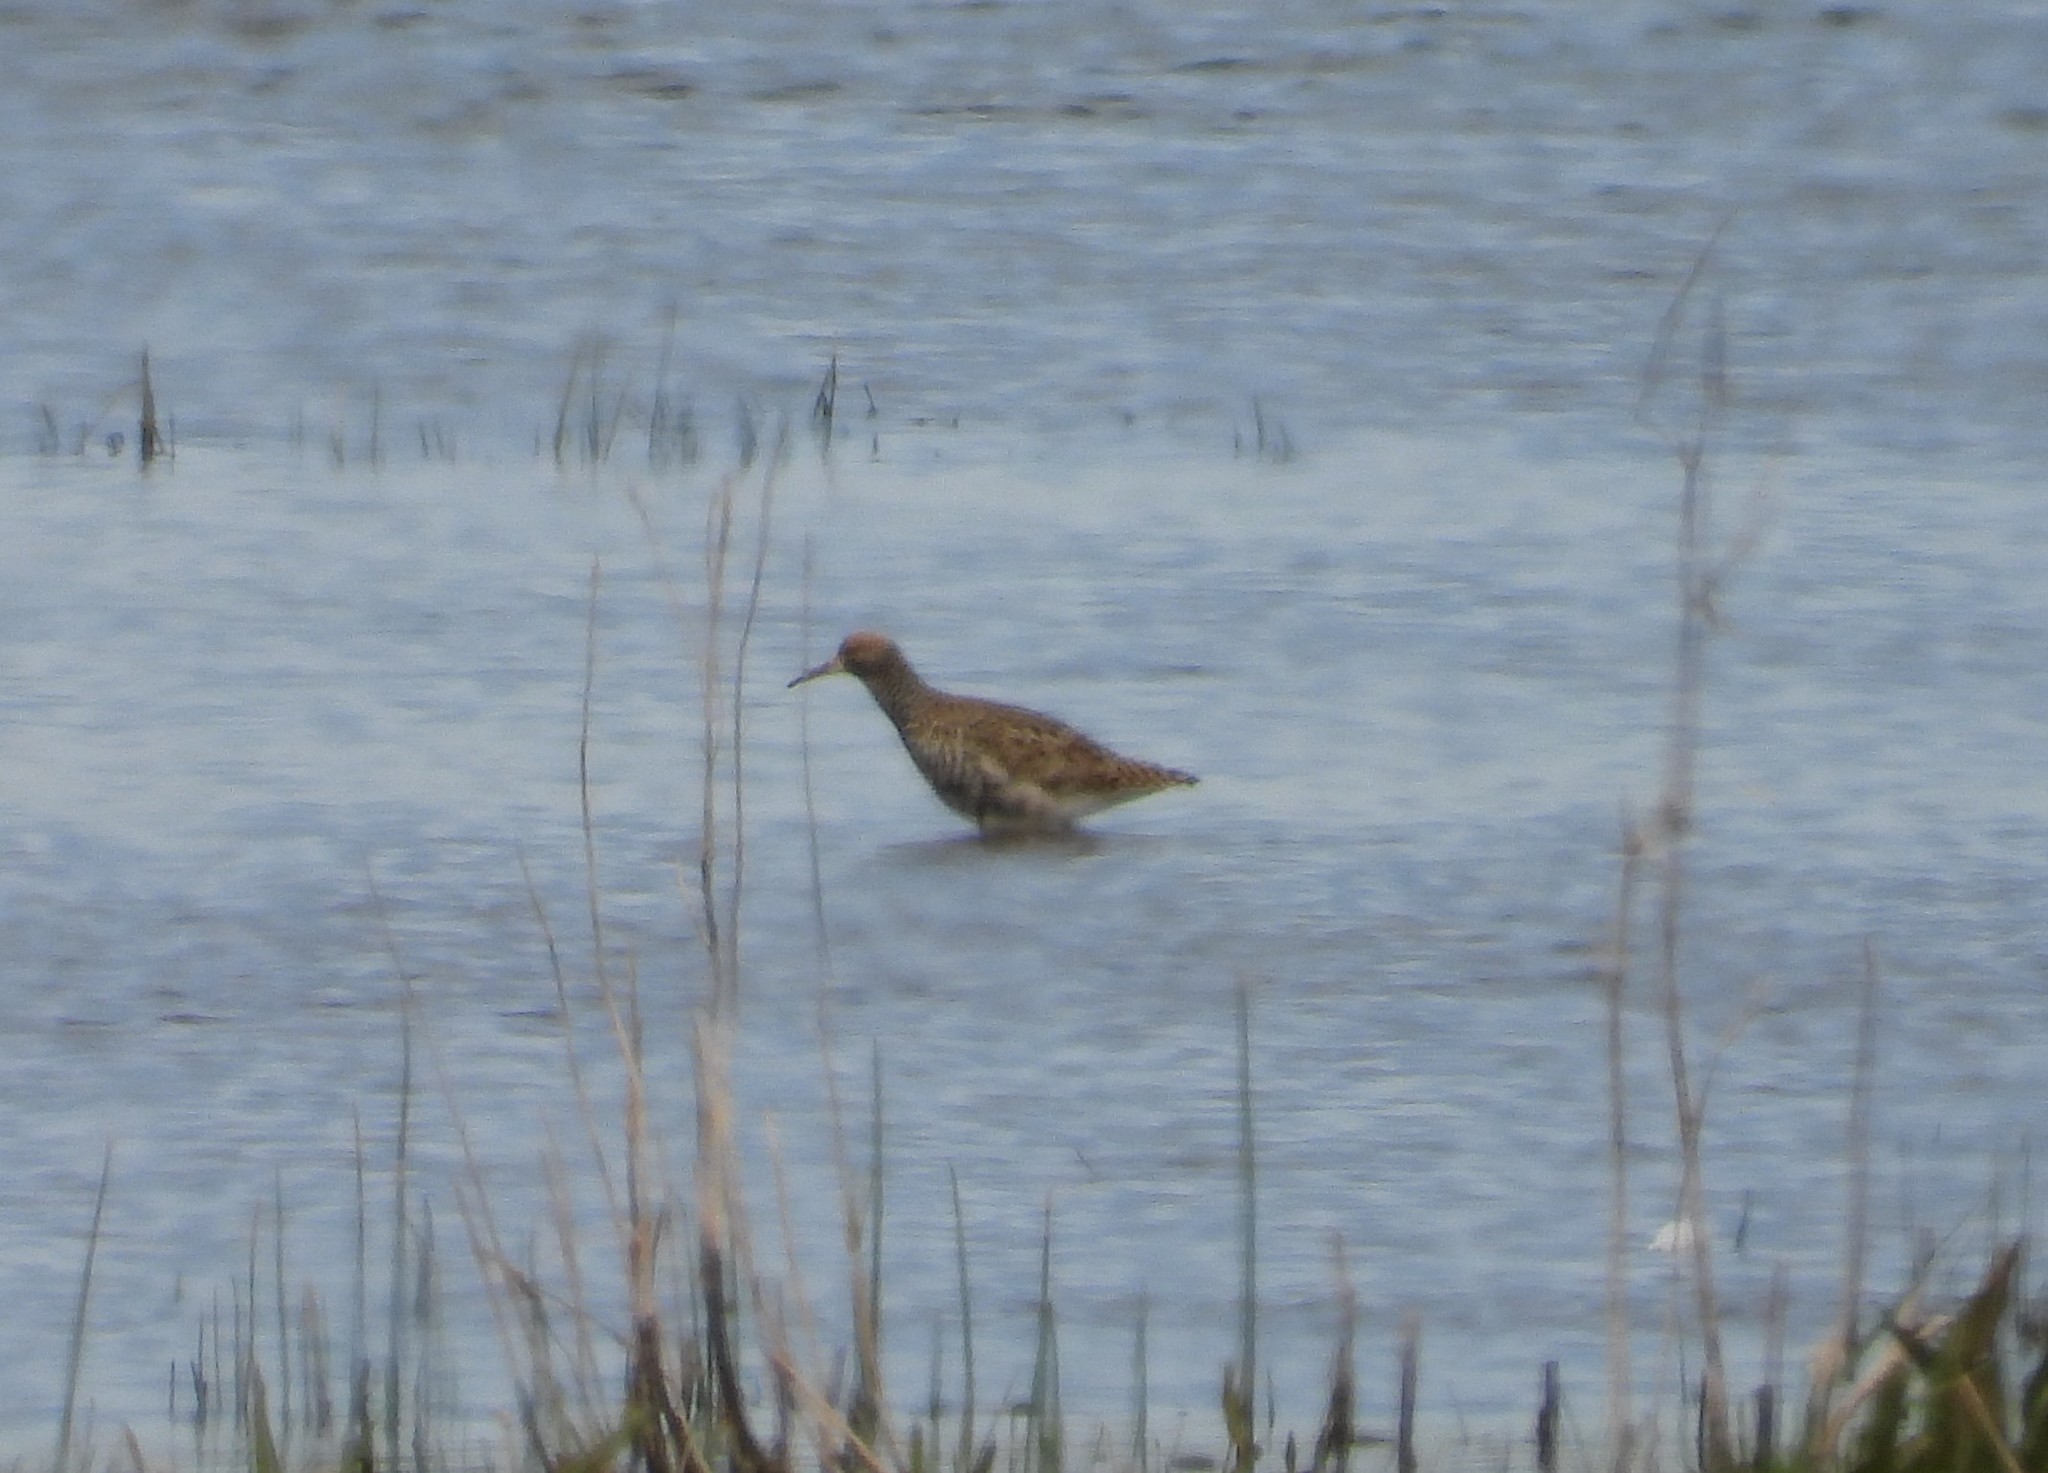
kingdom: Animalia
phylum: Chordata
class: Aves
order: Charadriiformes
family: Scolopacidae
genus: Calidris
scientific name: Calidris pugnax
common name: Ruff
